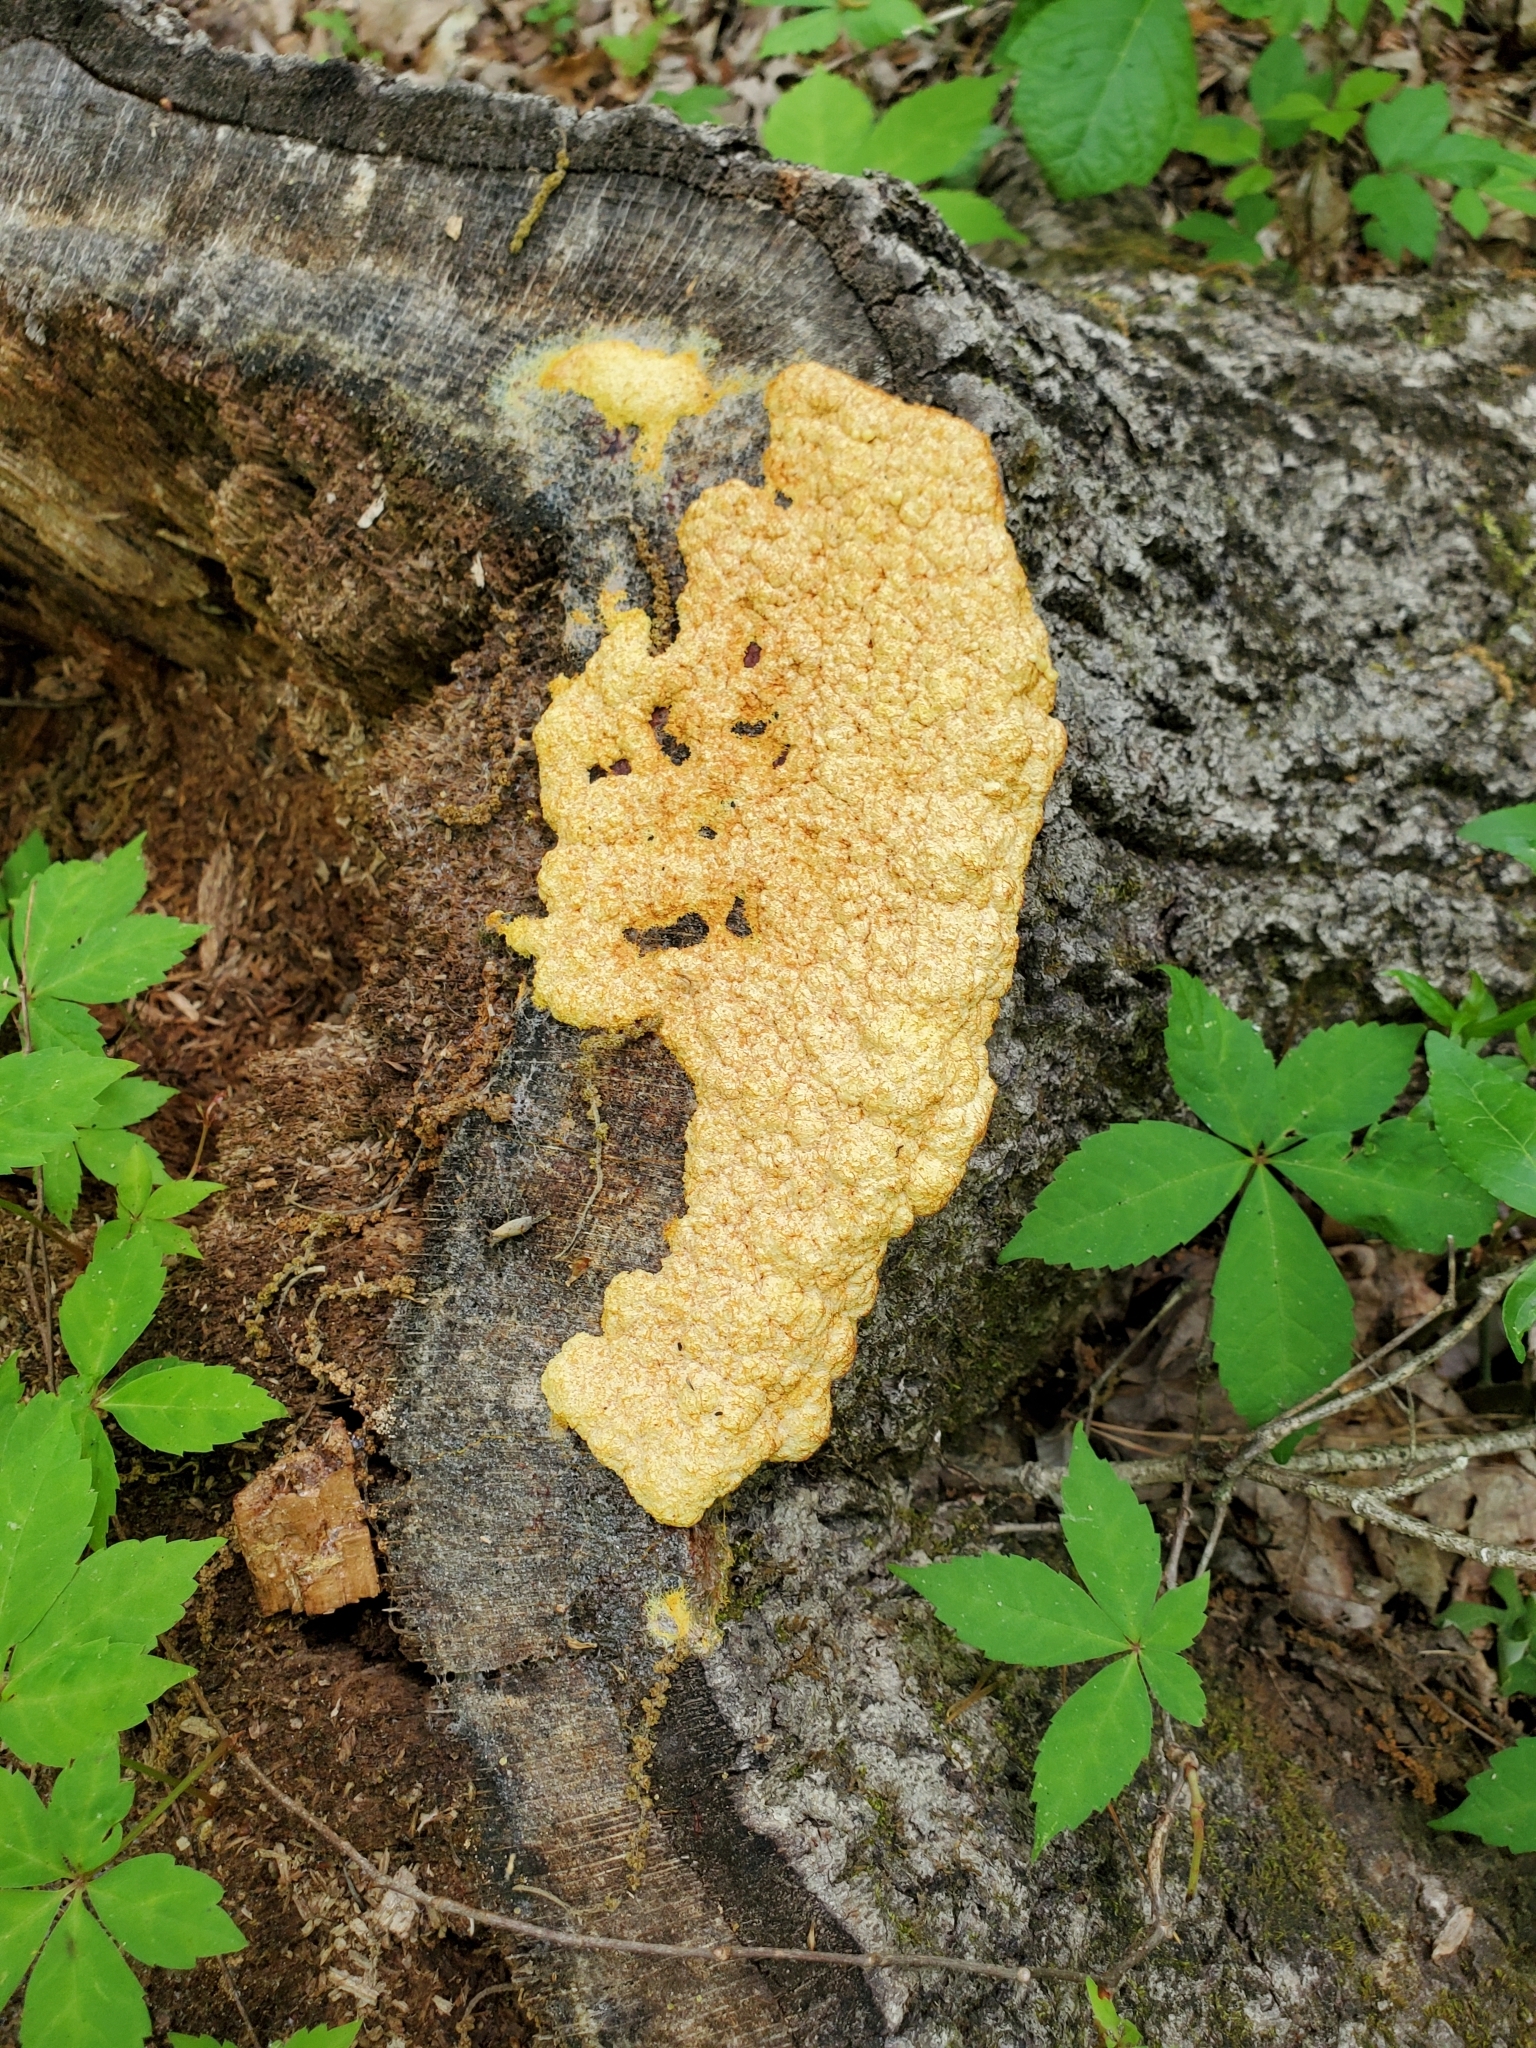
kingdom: Protozoa
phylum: Mycetozoa
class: Myxomycetes
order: Physarales
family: Physaraceae
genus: Fuligo
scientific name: Fuligo septica
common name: Dog vomit slime mold
